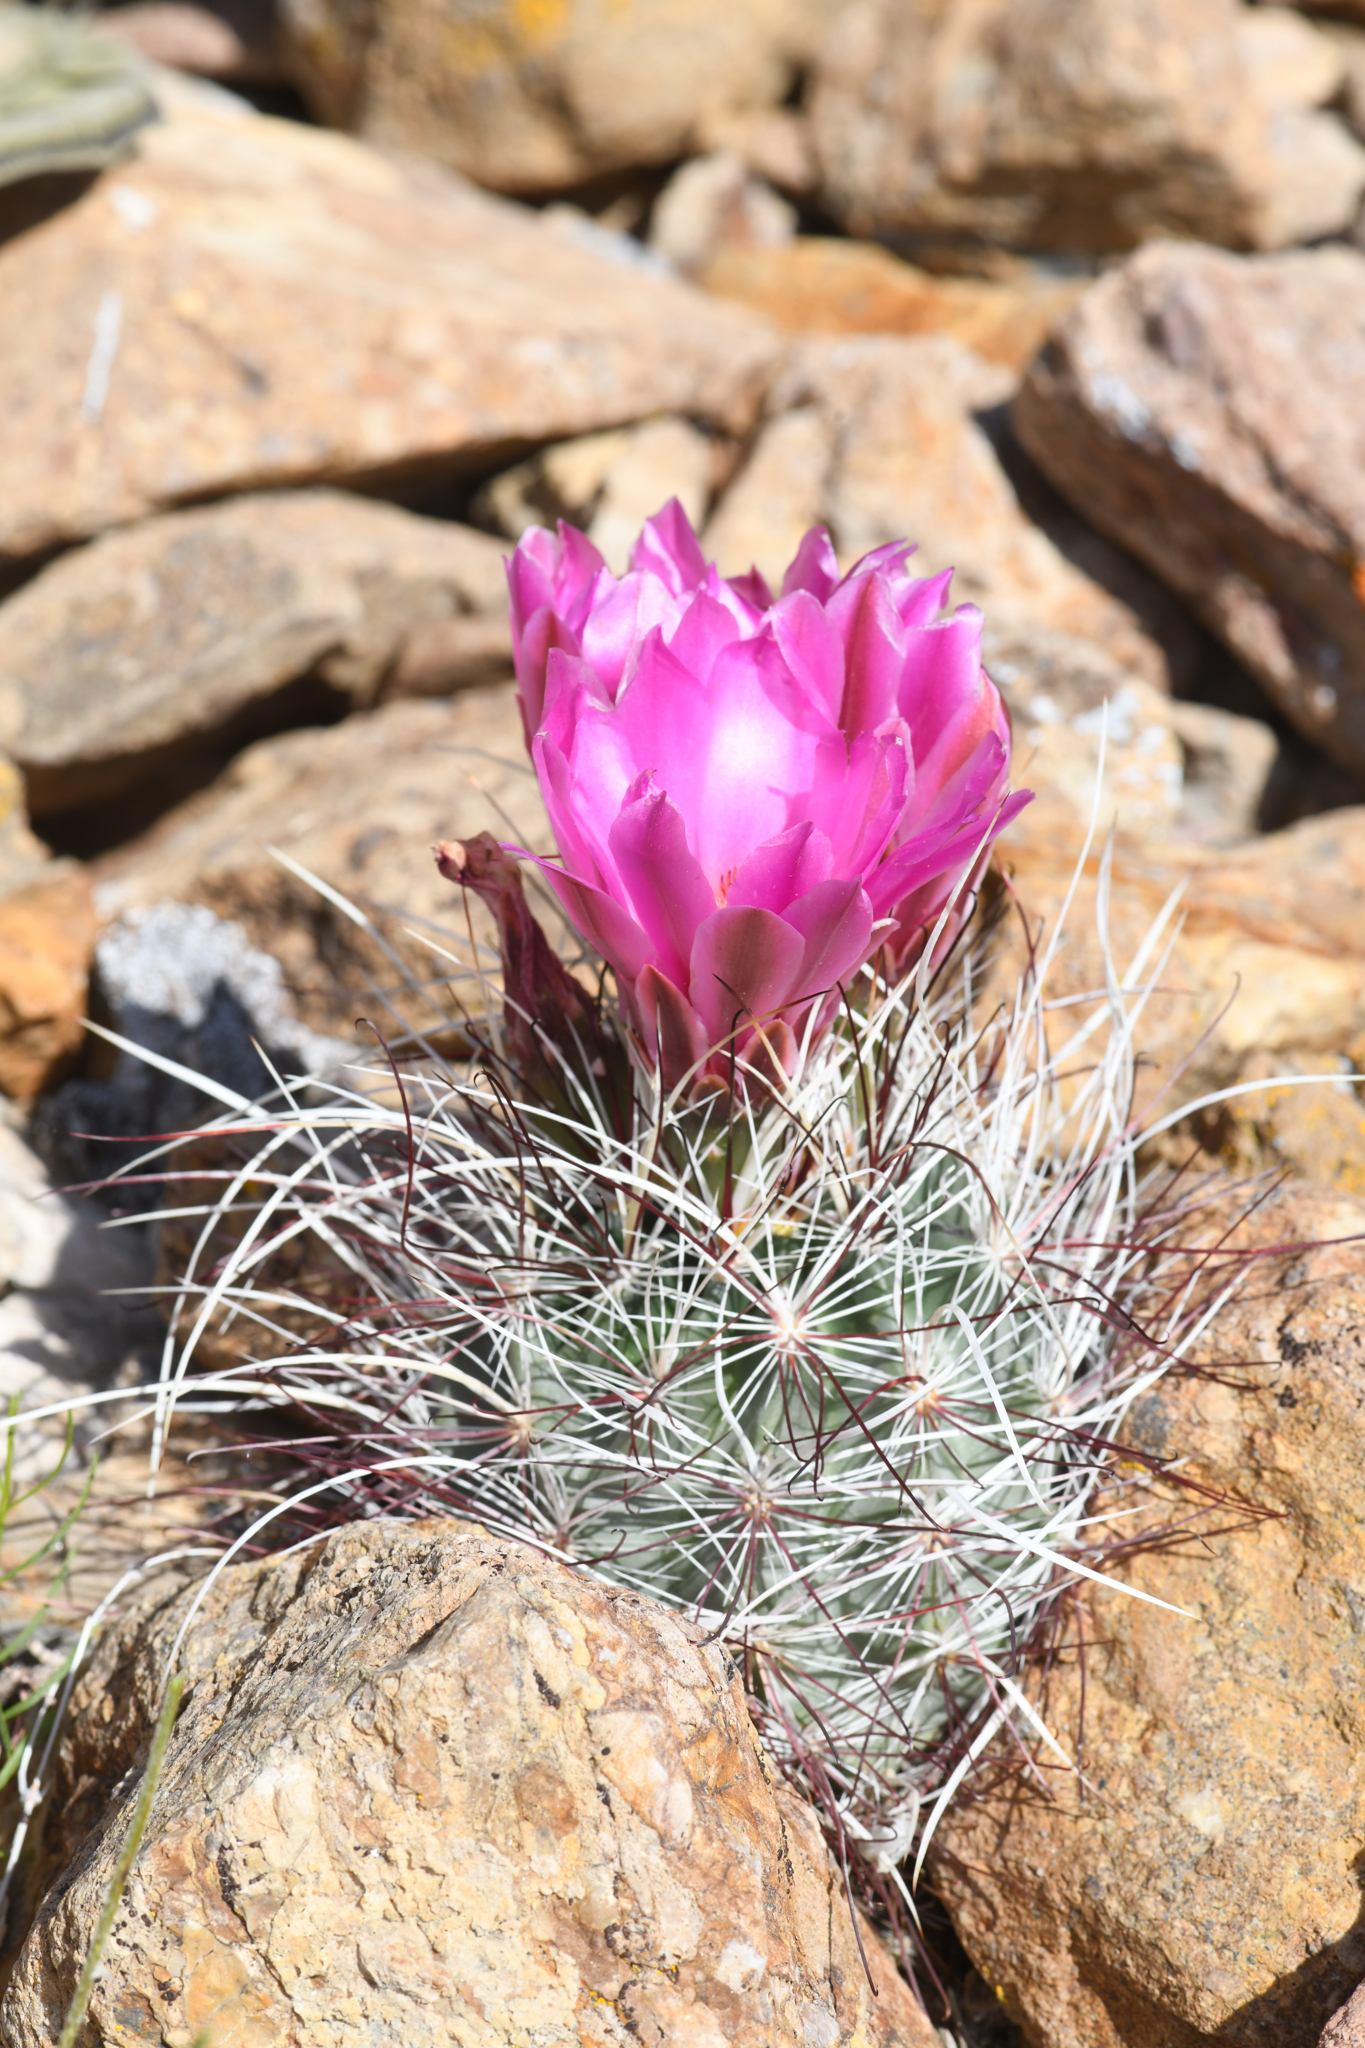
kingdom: Plantae
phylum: Tracheophyta
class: Magnoliopsida
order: Caryophyllales
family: Cactaceae
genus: Sclerocactus
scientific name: Sclerocactus polyancistrus
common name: Mohave fishhook cactus
